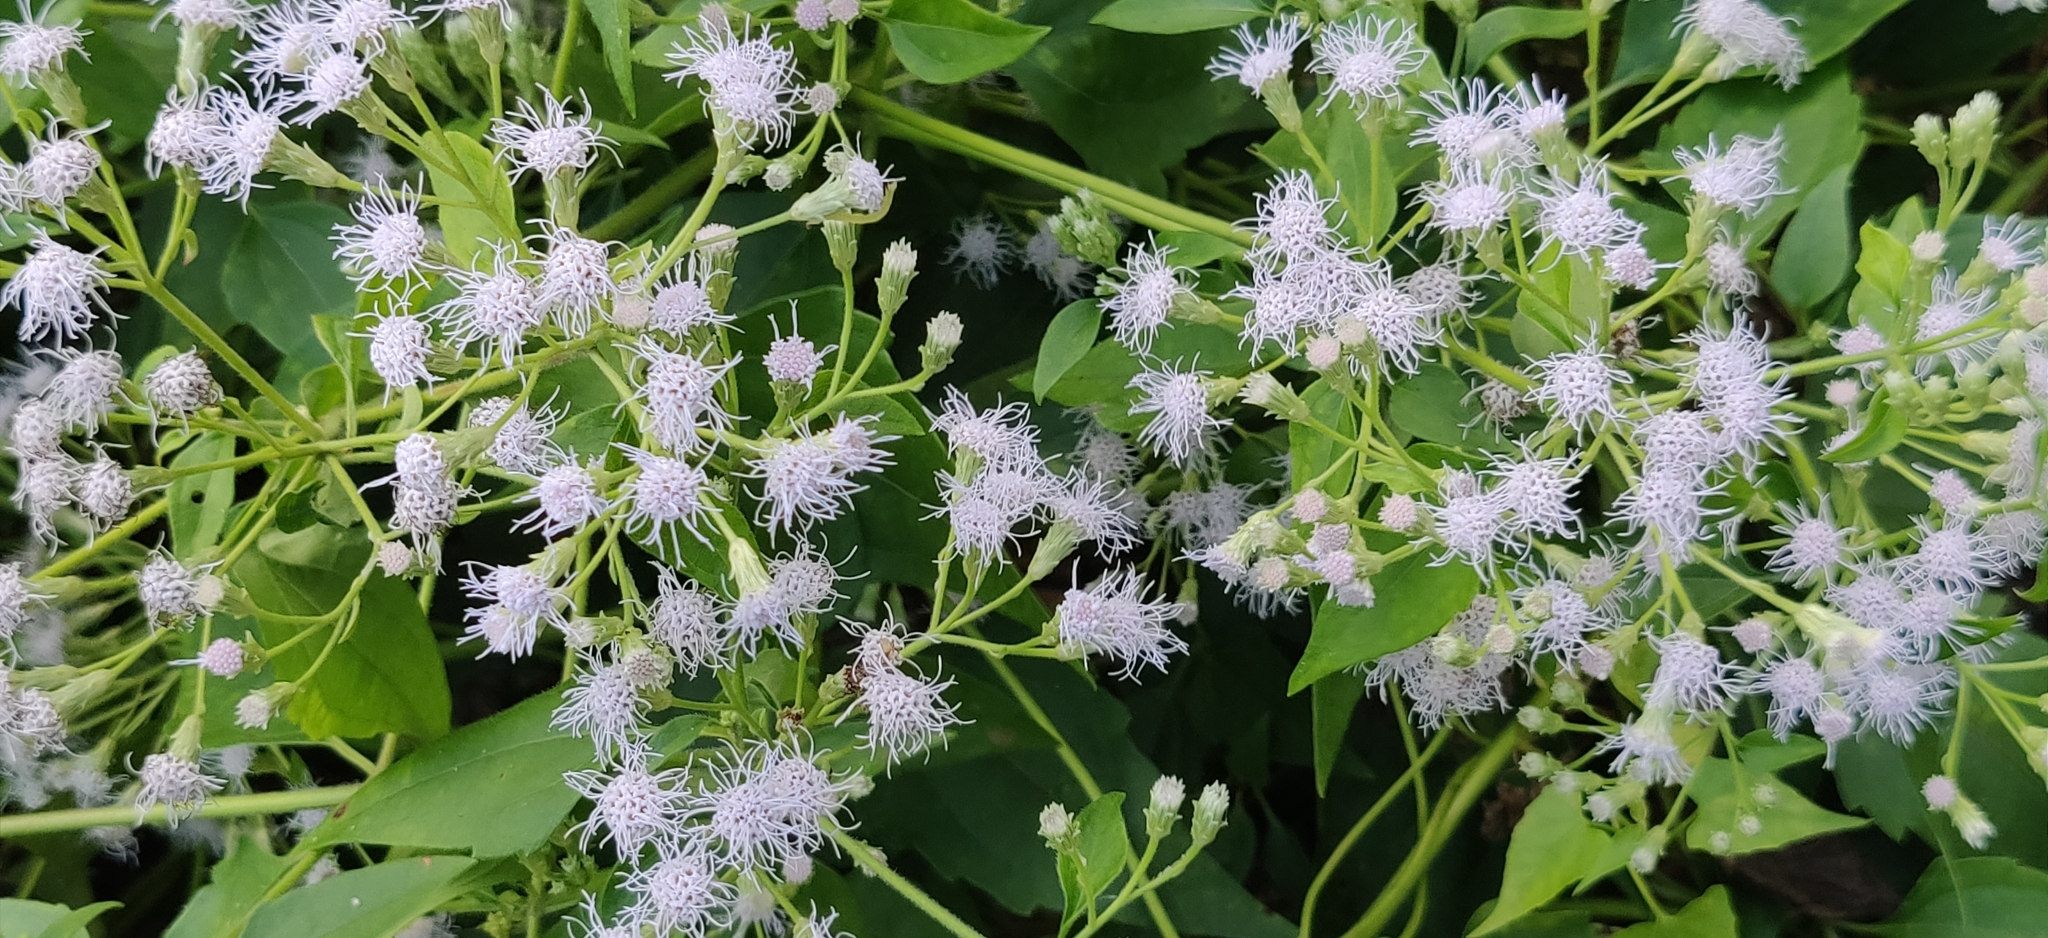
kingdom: Plantae
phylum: Tracheophyta
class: Magnoliopsida
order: Asterales
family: Asteraceae
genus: Chromolaena
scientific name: Chromolaena odorata
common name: Siamweed
